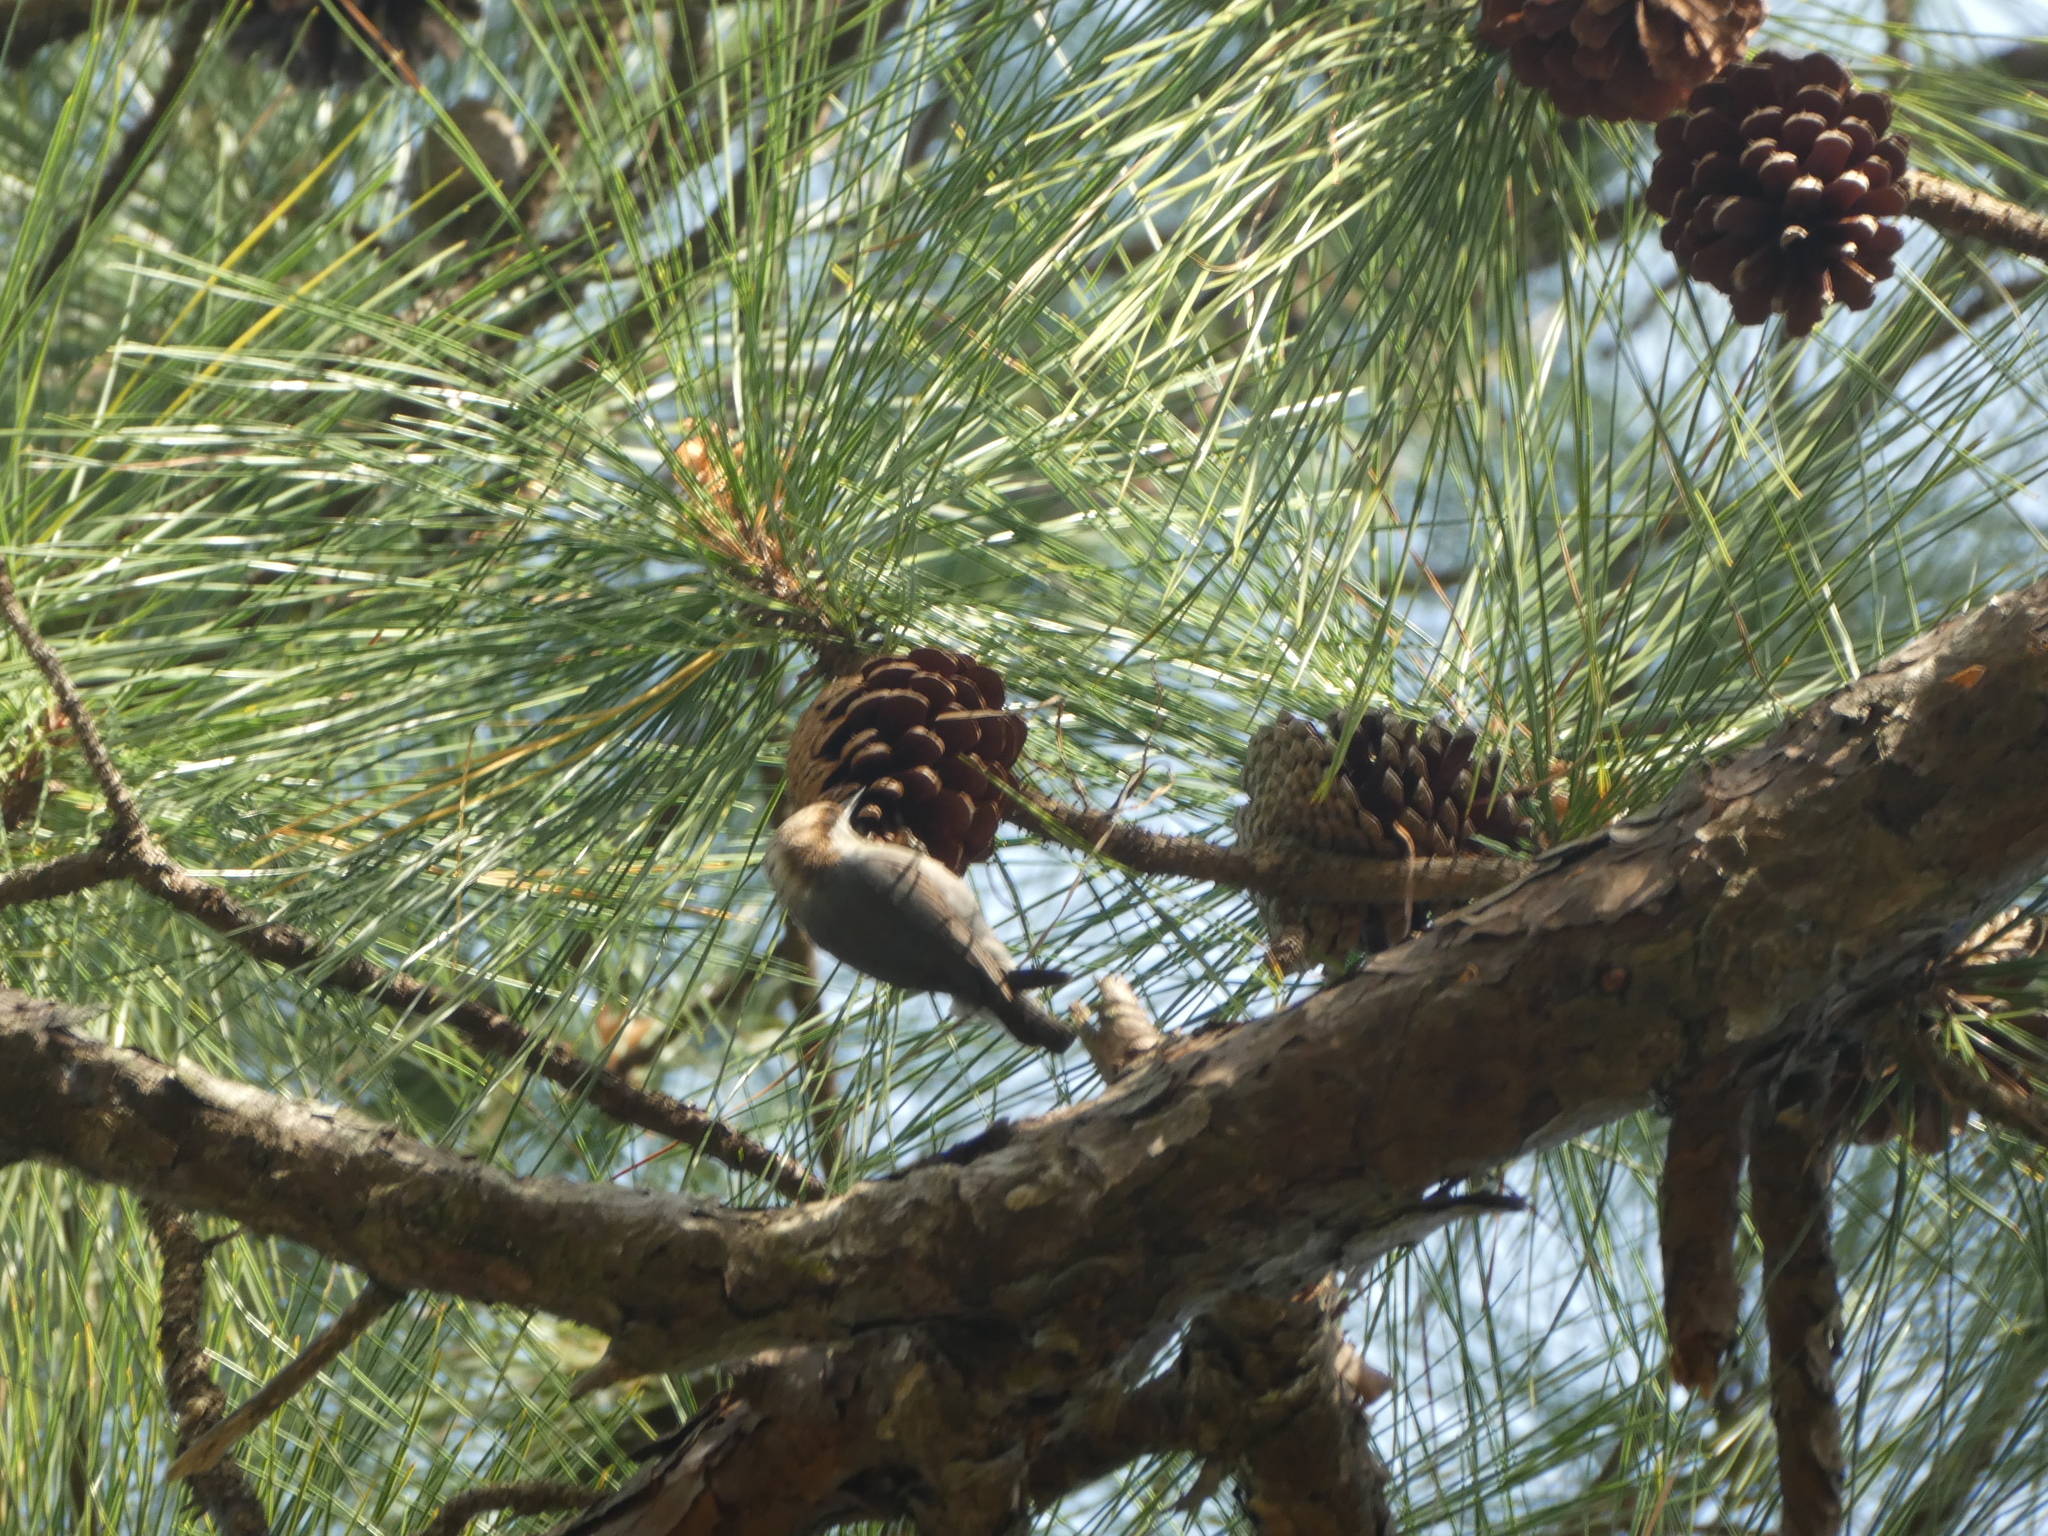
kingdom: Animalia
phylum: Chordata
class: Aves
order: Passeriformes
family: Sittidae
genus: Sitta
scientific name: Sitta pusilla
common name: Brown-headed nuthatch
